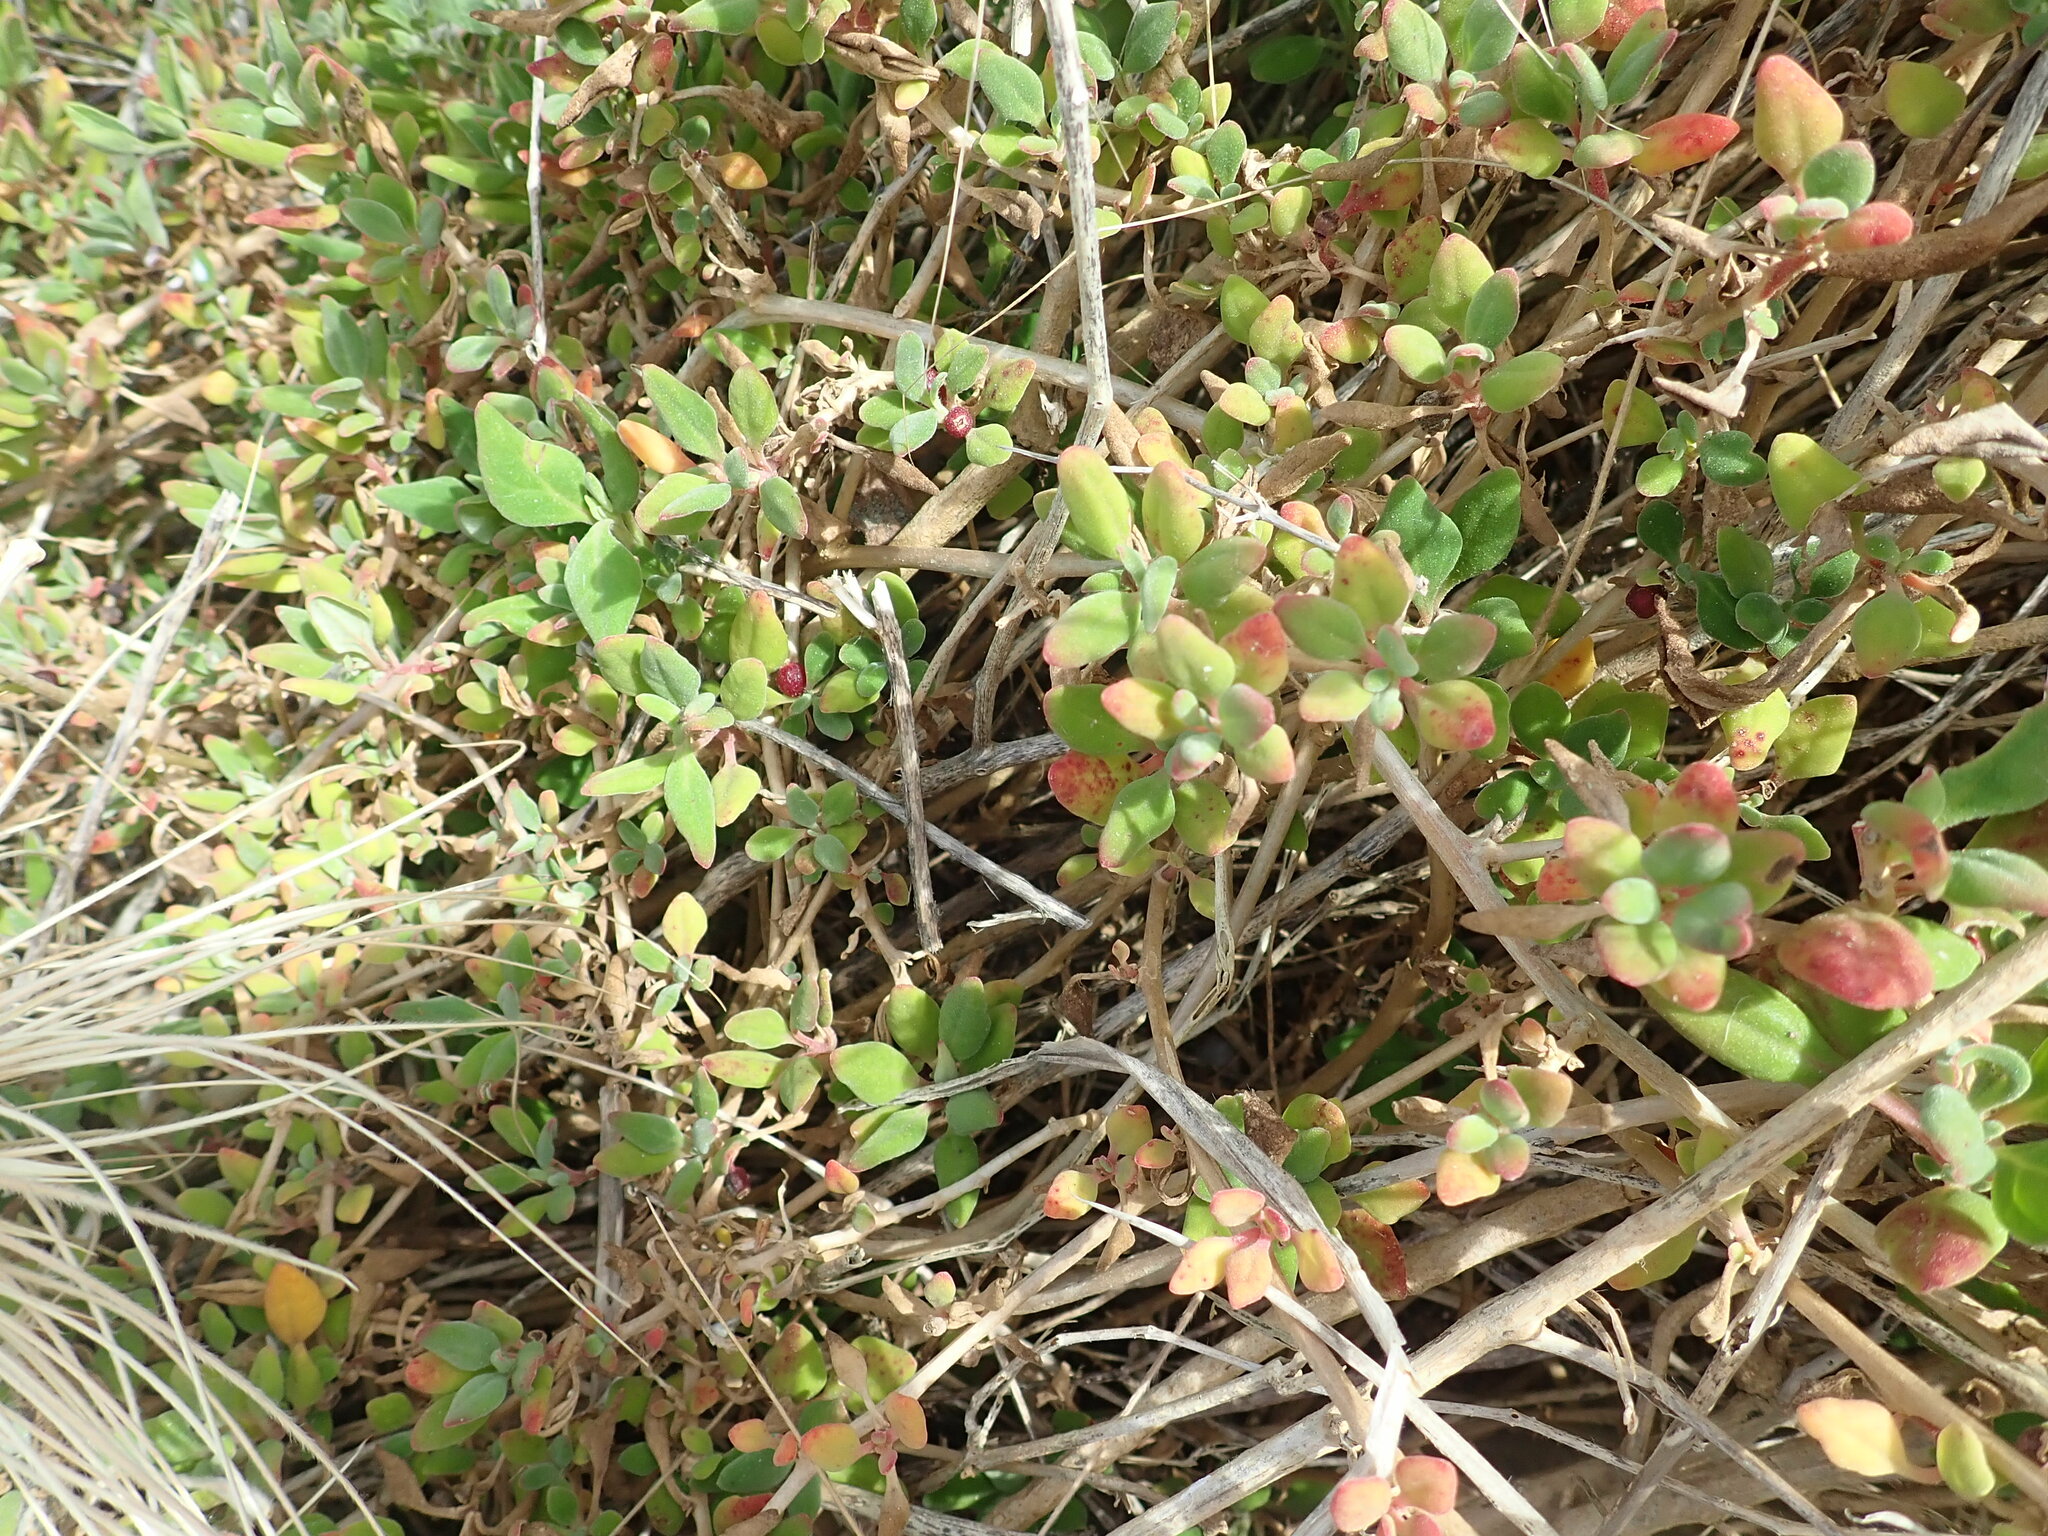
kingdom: Plantae
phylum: Tracheophyta
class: Magnoliopsida
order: Caryophyllales
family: Aizoaceae
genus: Tetragonia
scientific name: Tetragonia implexicoma
